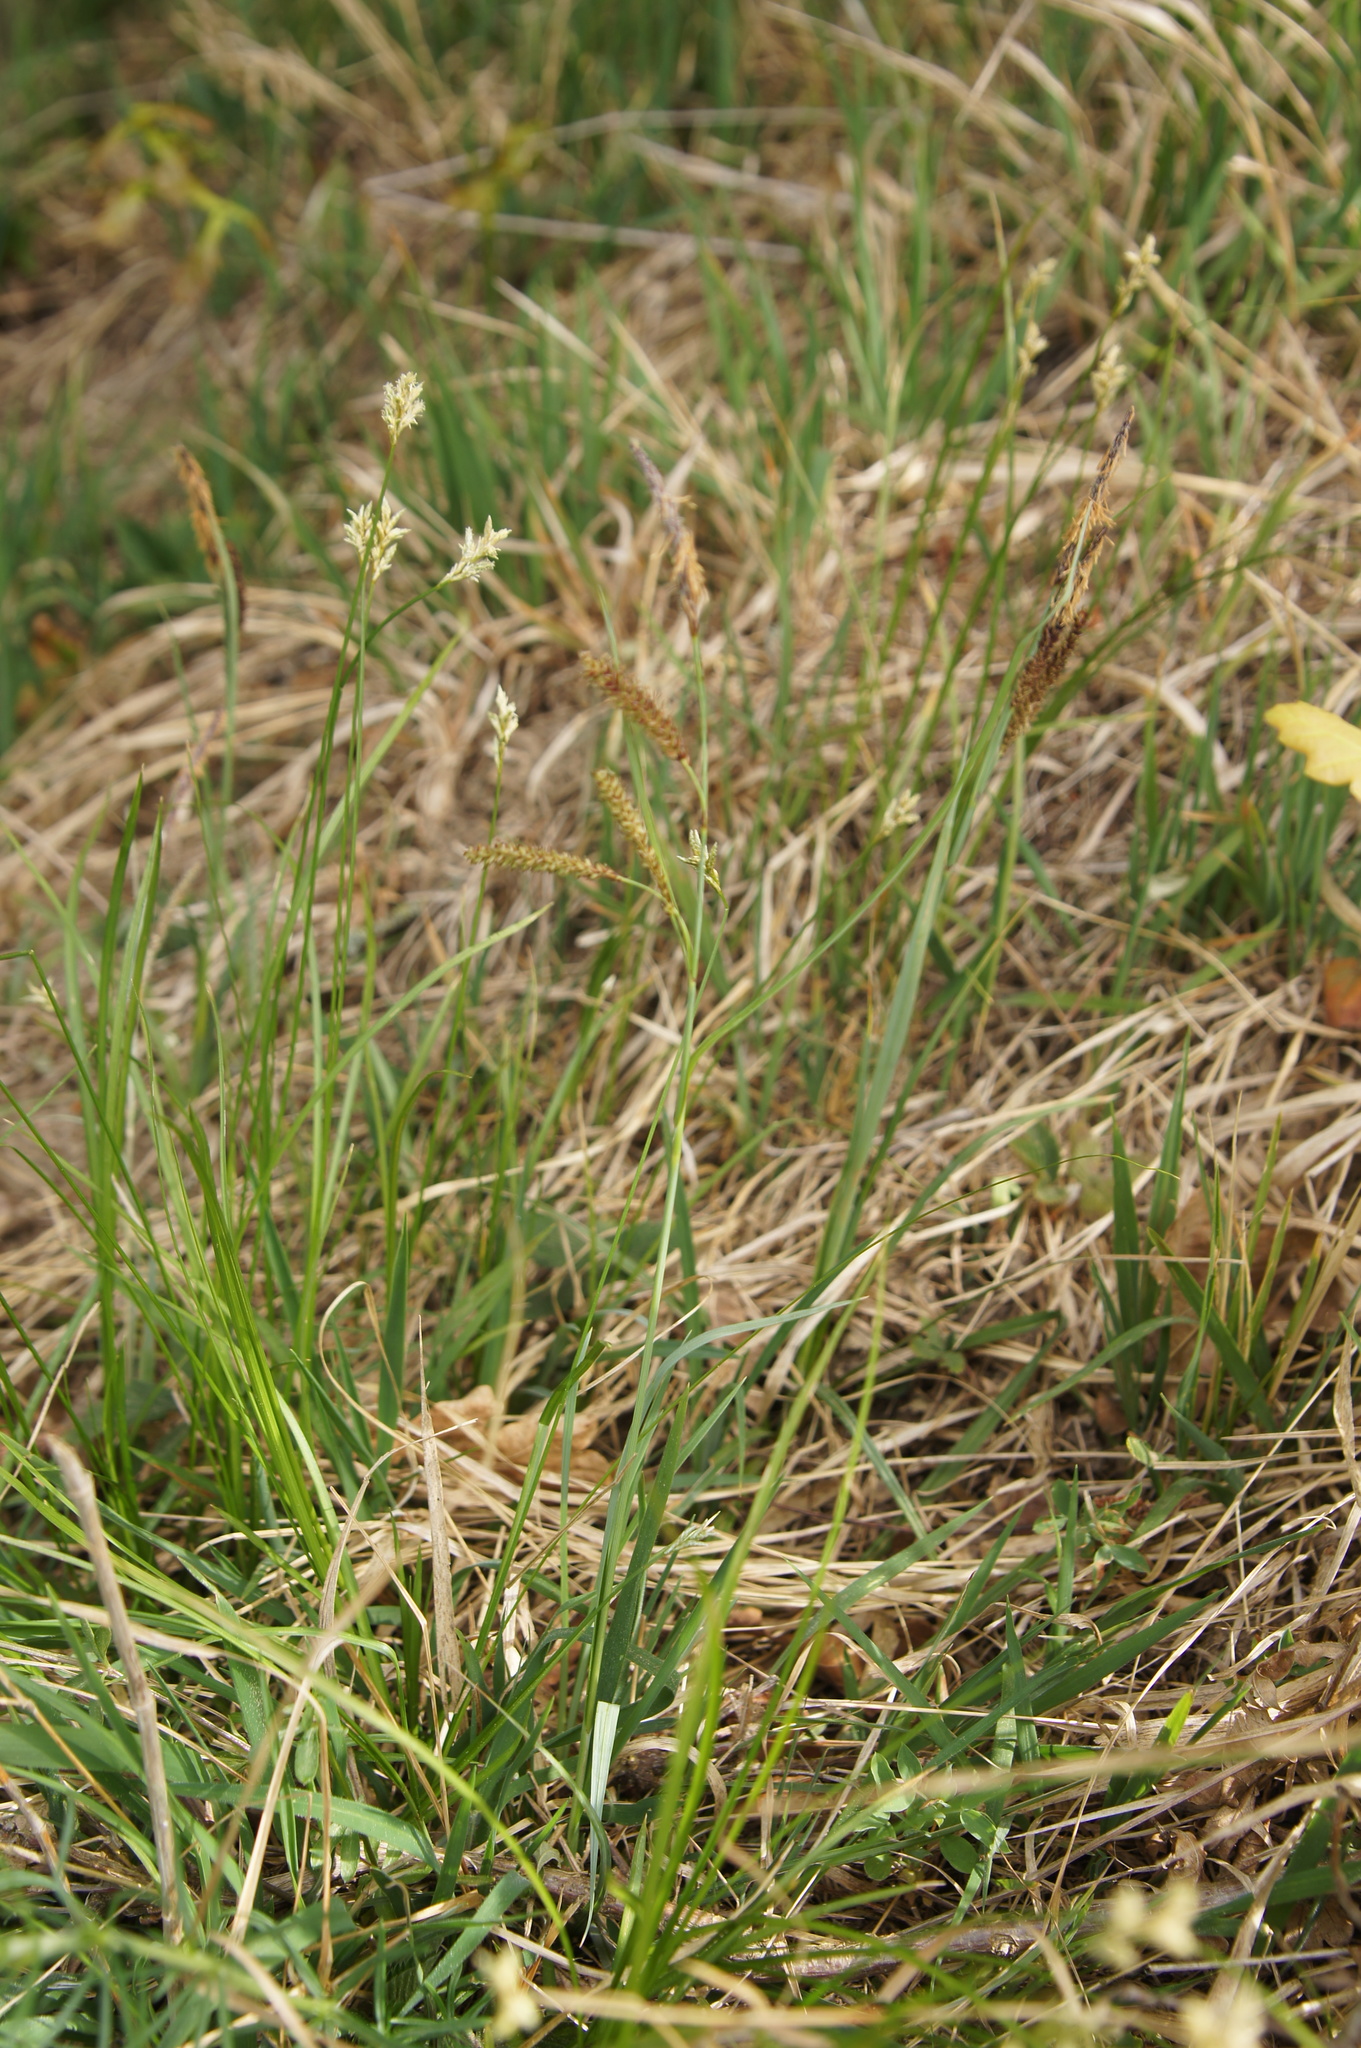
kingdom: Plantae
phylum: Tracheophyta
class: Liliopsida
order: Poales
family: Cyperaceae
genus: Carex
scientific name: Carex flacca
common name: Glaucous sedge
